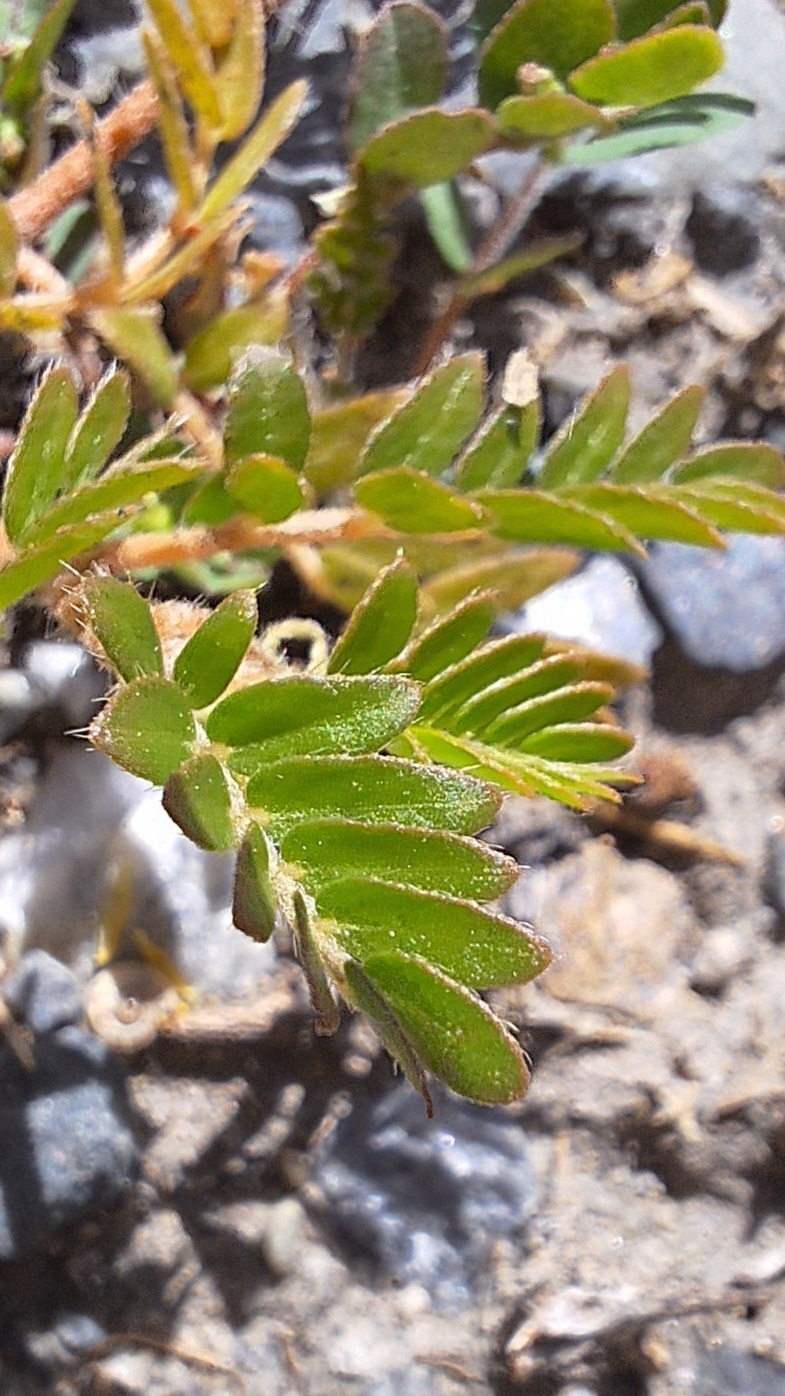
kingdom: Plantae
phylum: Tracheophyta
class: Magnoliopsida
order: Zygophyllales
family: Zygophyllaceae
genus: Tribulus
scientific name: Tribulus terrestris
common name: Puncturevine
